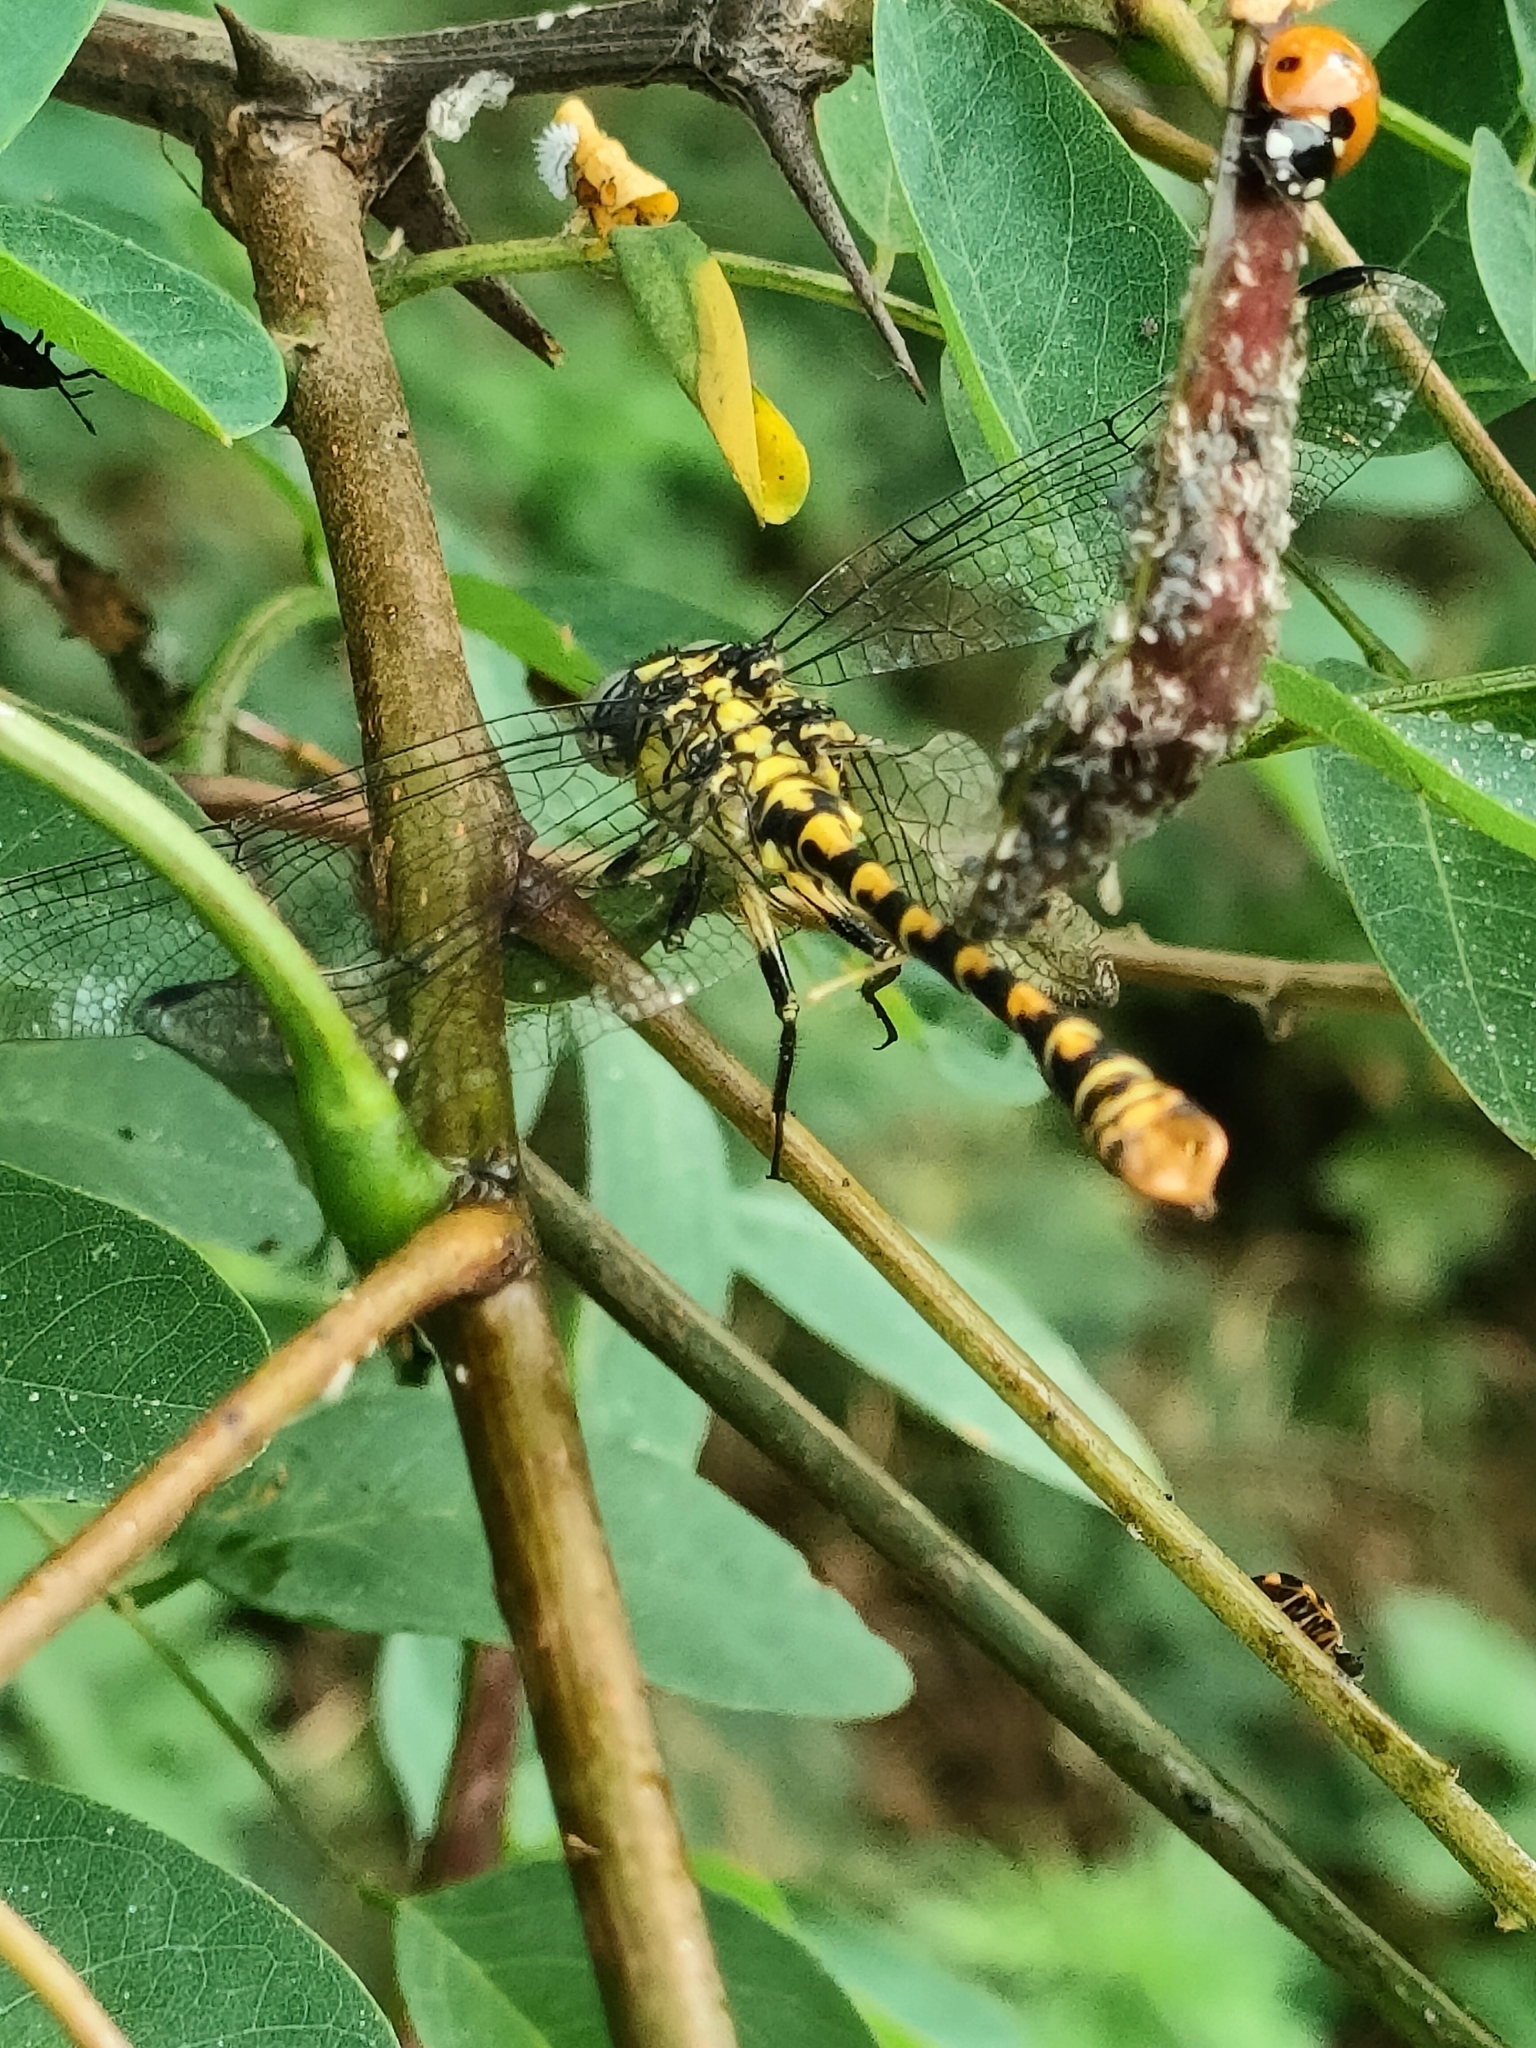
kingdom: Animalia
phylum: Arthropoda
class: Insecta
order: Odonata
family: Gomphidae
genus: Onychogomphus
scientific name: Onychogomphus forcipatus
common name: Small pincertail
